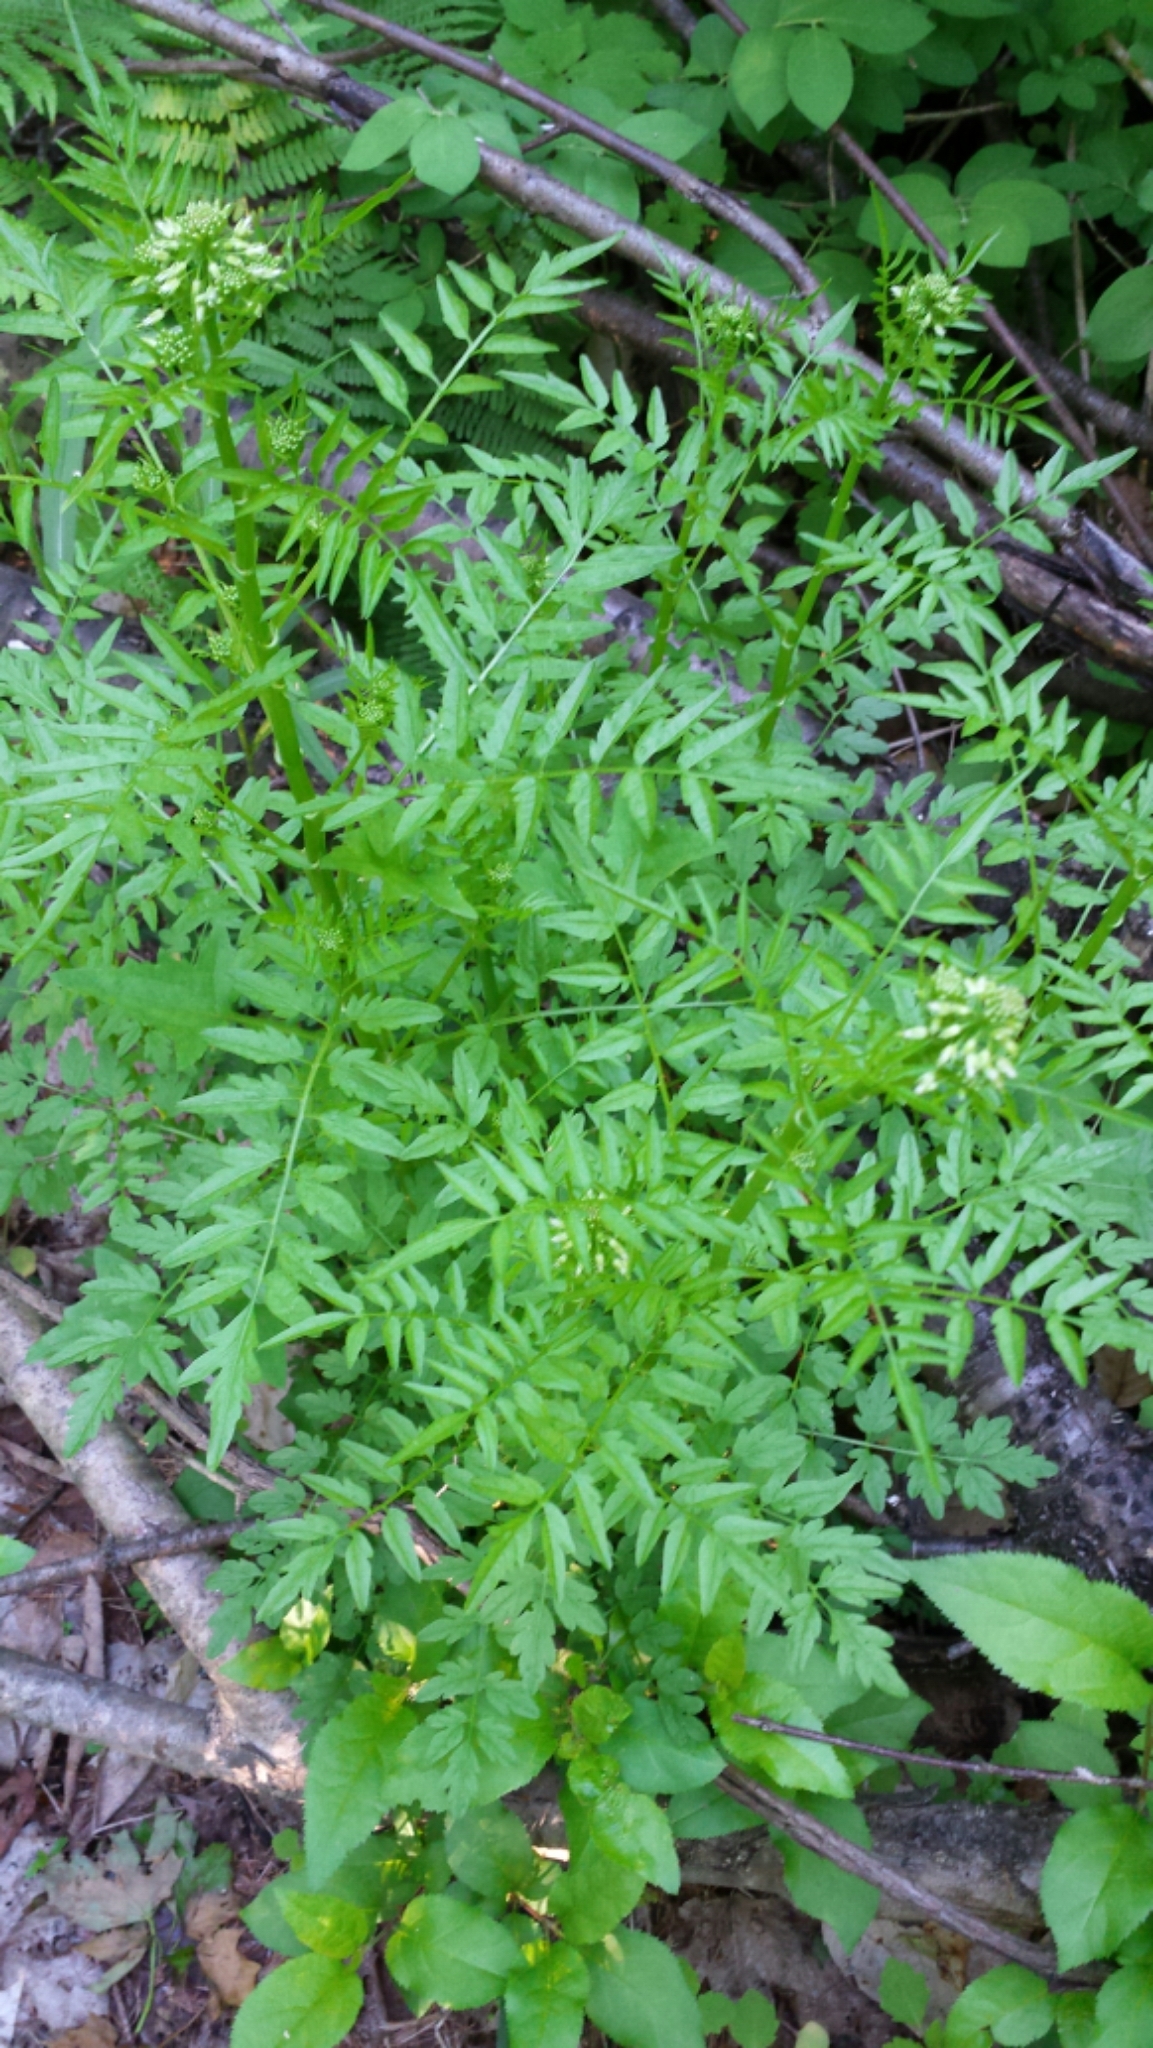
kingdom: Plantae
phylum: Tracheophyta
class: Magnoliopsida
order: Brassicales
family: Brassicaceae
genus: Cardamine
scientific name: Cardamine impatiens
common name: Narrow-leaved bitter-cress
